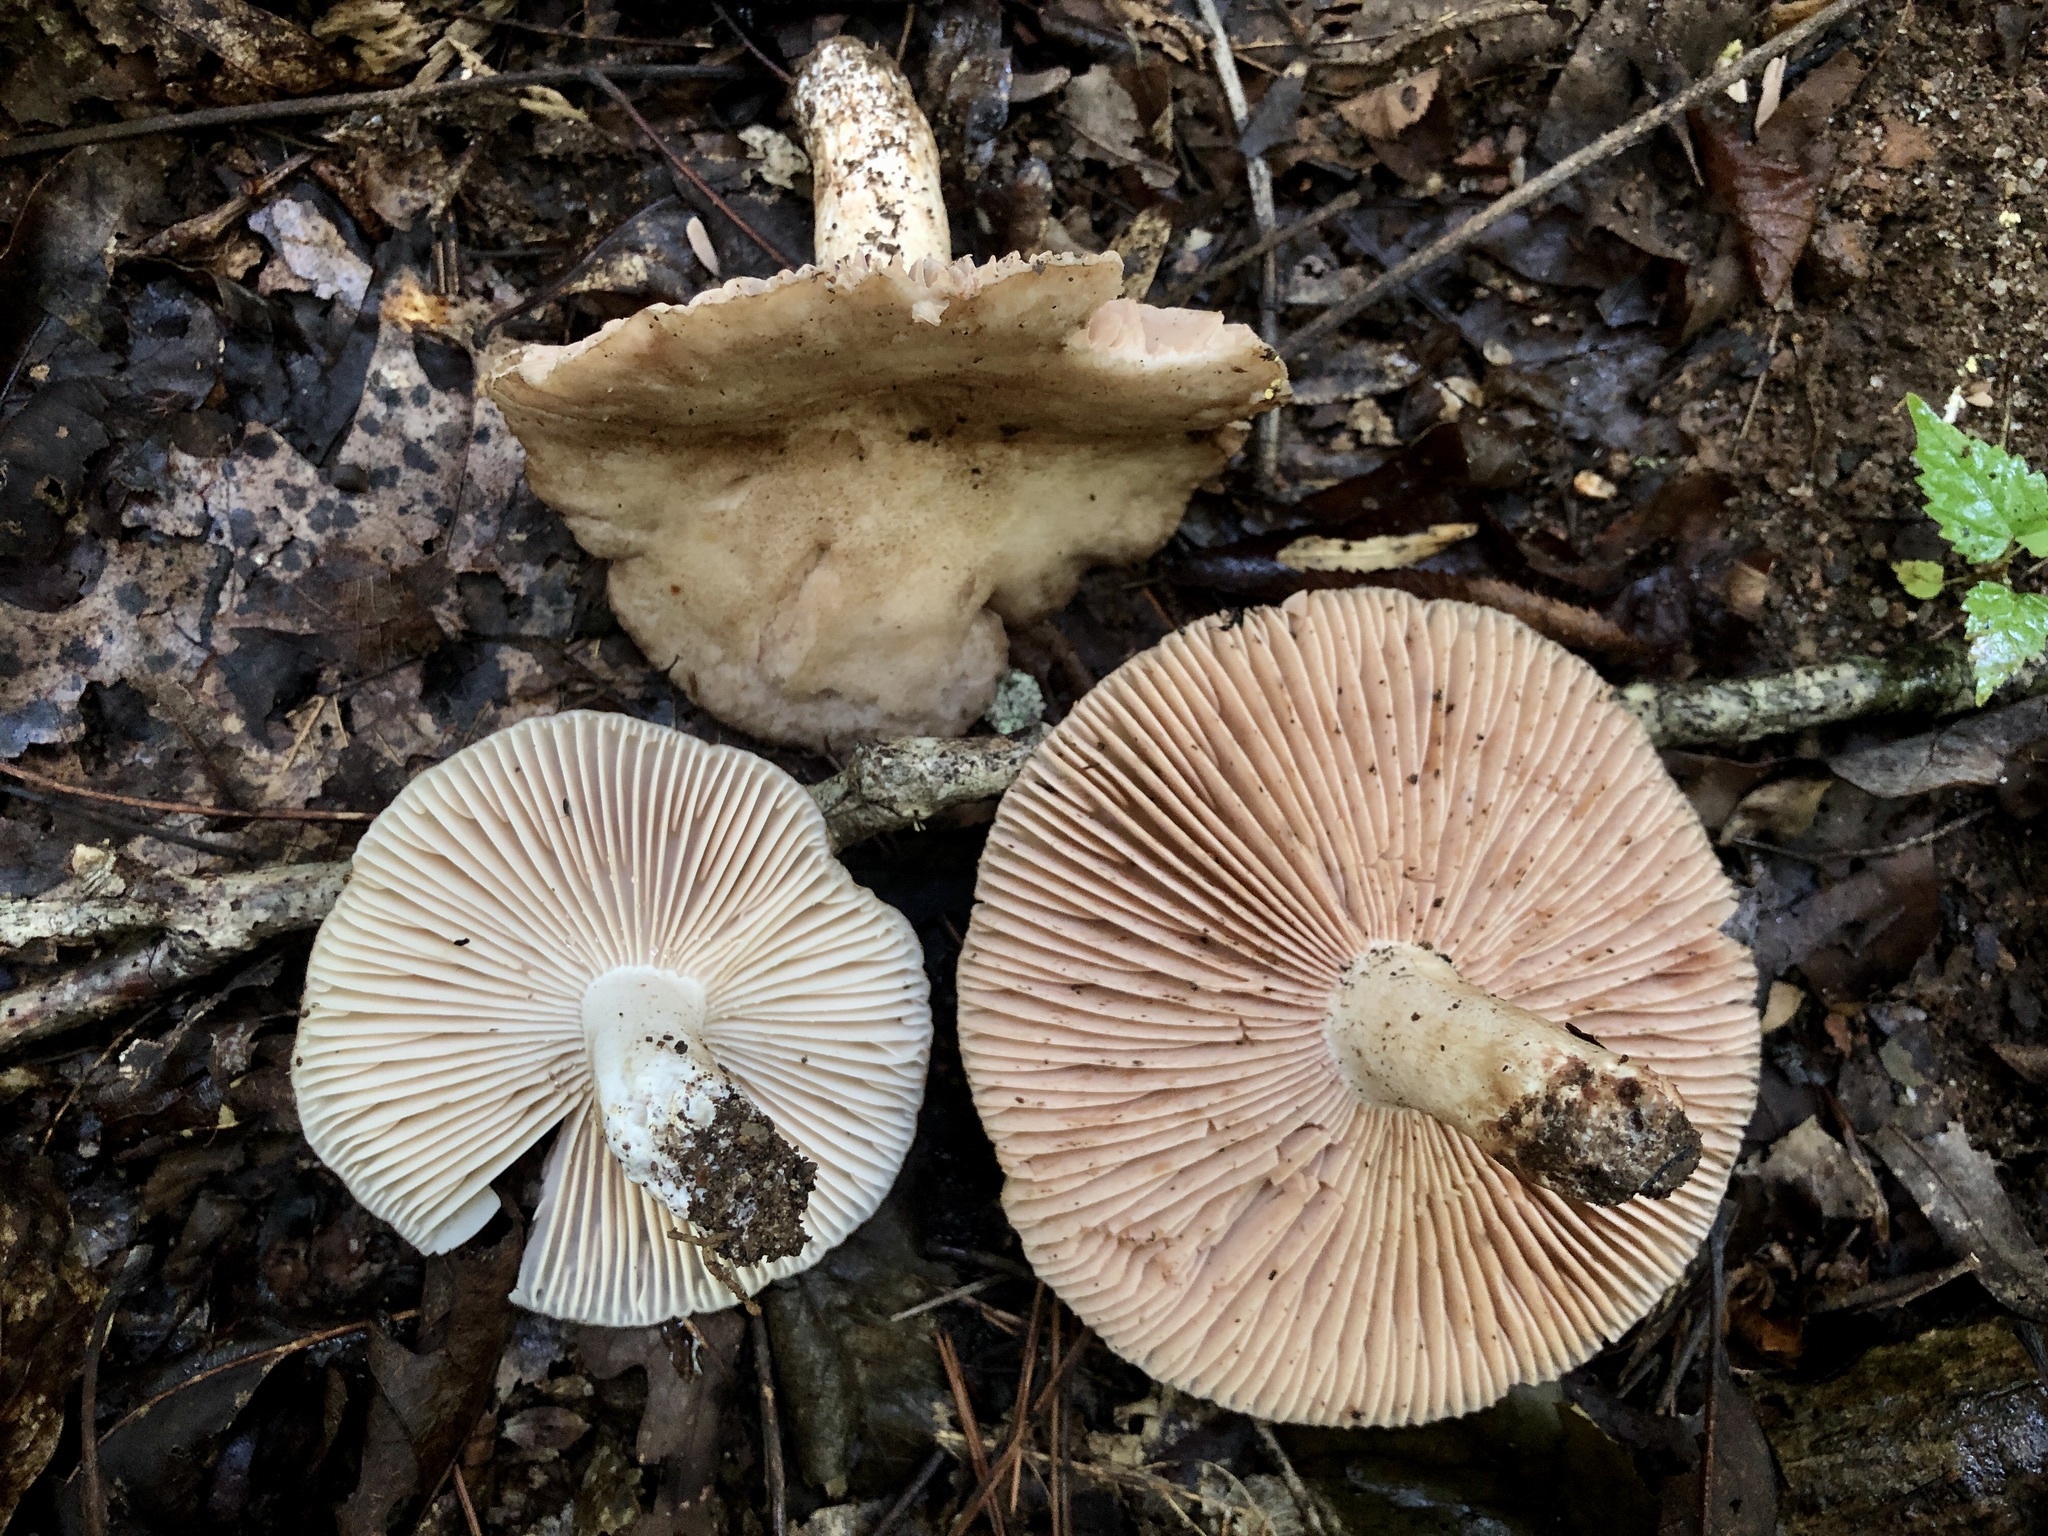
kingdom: Fungi
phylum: Basidiomycota
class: Agaricomycetes
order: Russulales
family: Russulaceae
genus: Russula
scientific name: Russula adusta
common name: Winecork brittlegill
